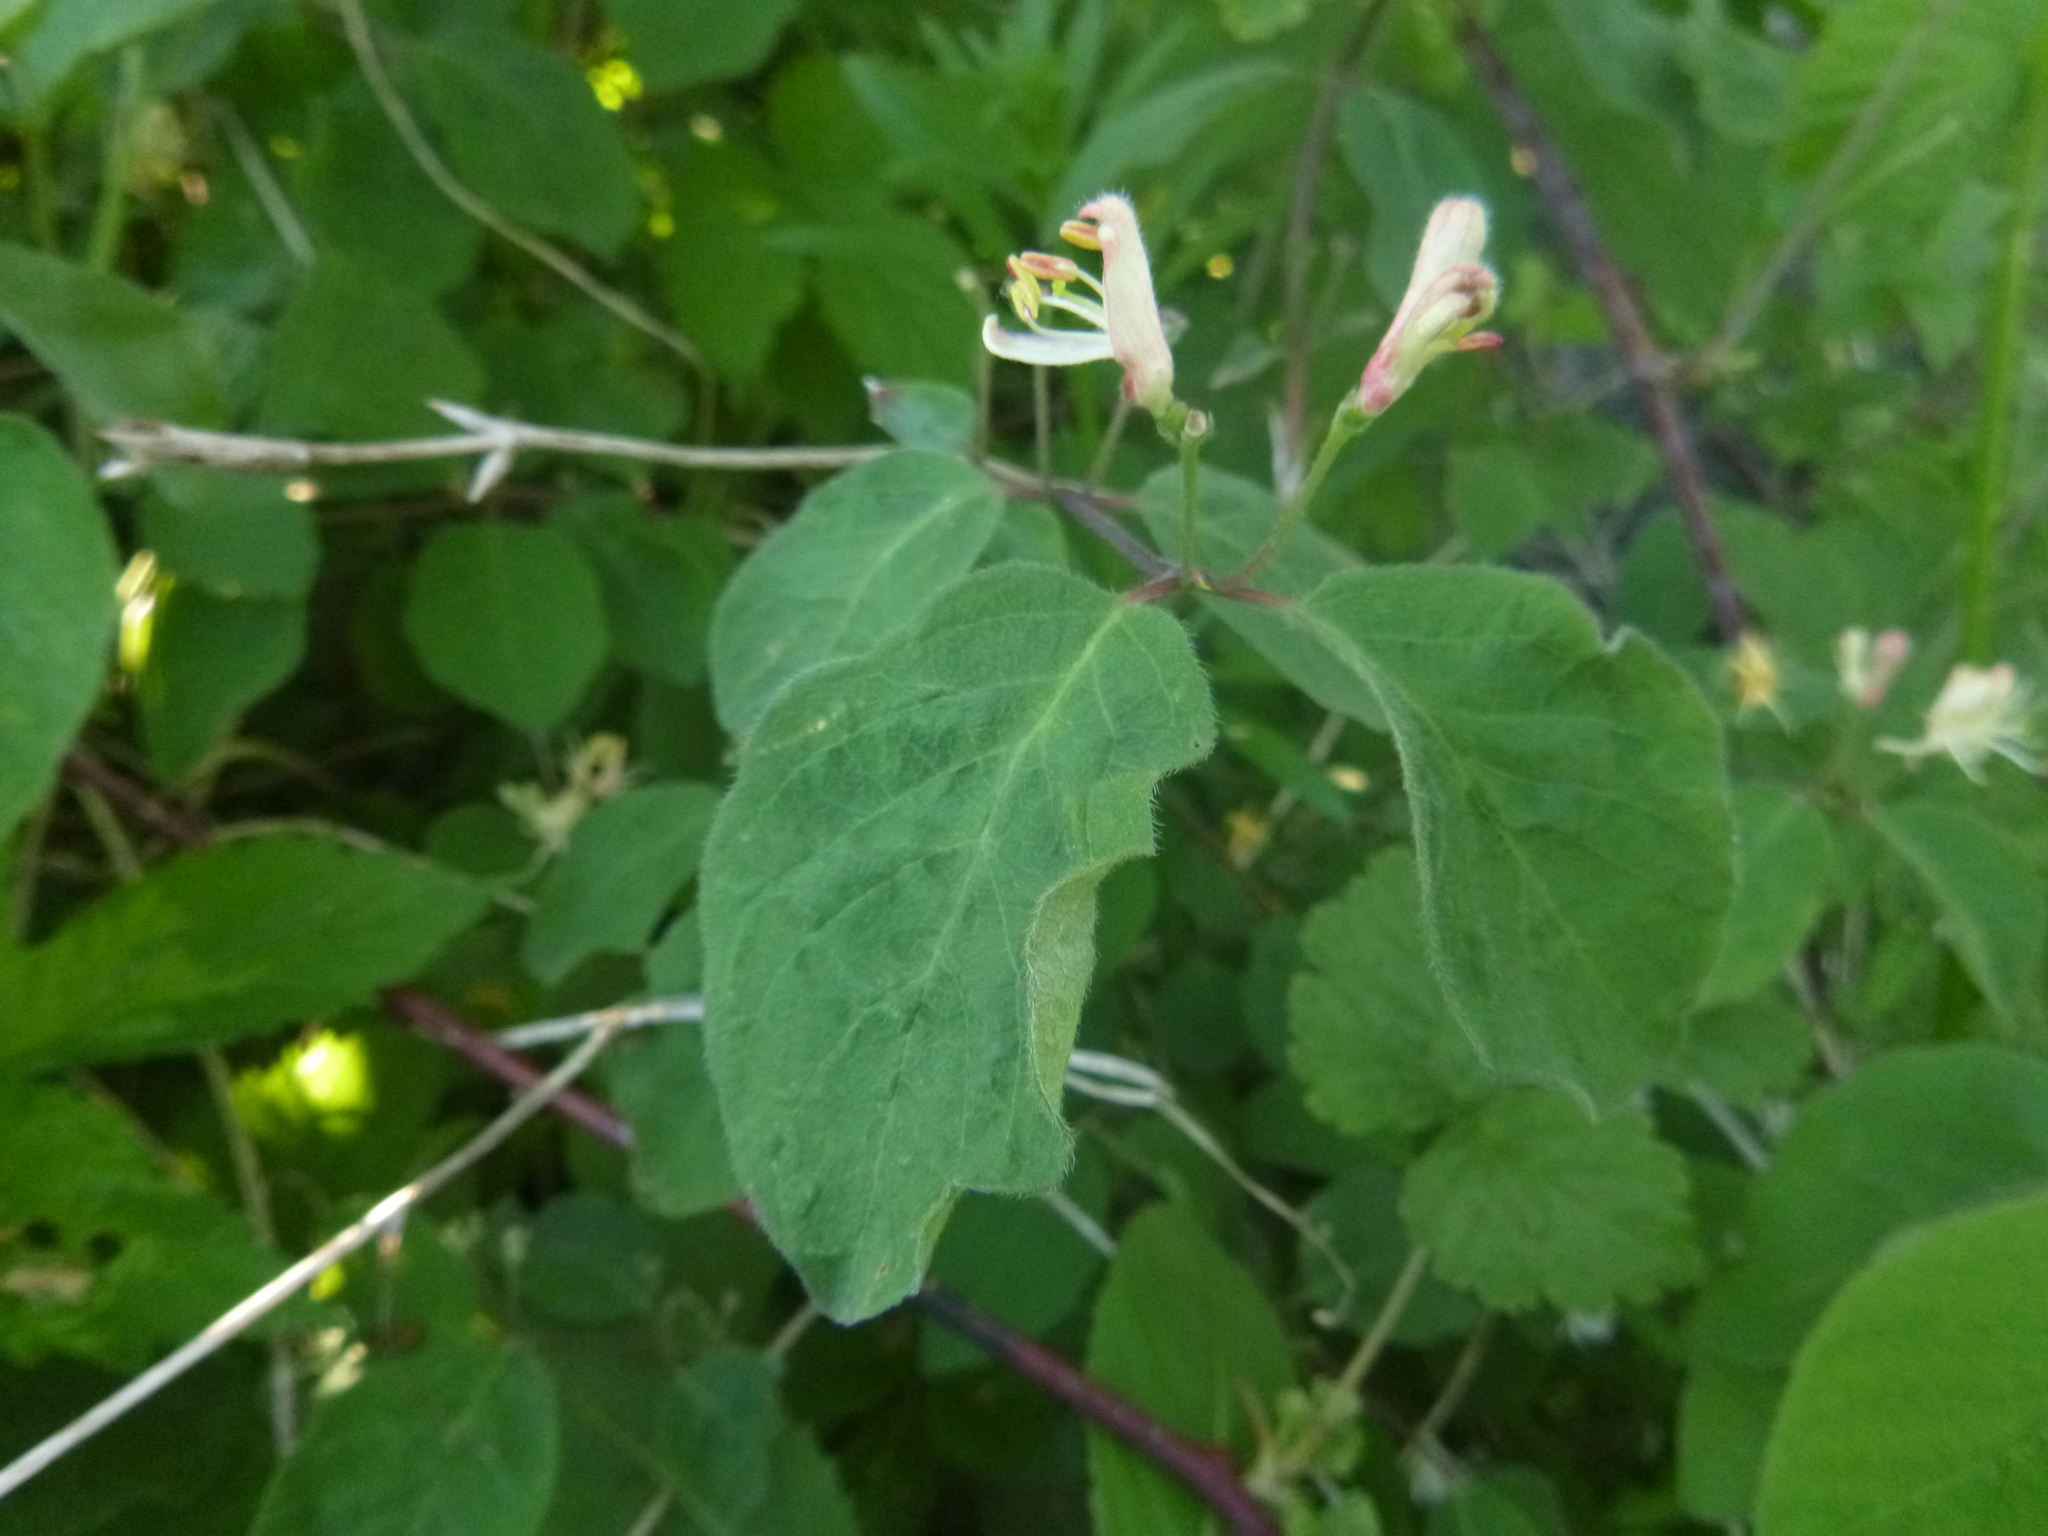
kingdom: Plantae
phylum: Tracheophyta
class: Magnoliopsida
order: Dipsacales
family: Caprifoliaceae
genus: Lonicera
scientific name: Lonicera xylosteum
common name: Fly honeysuckle
